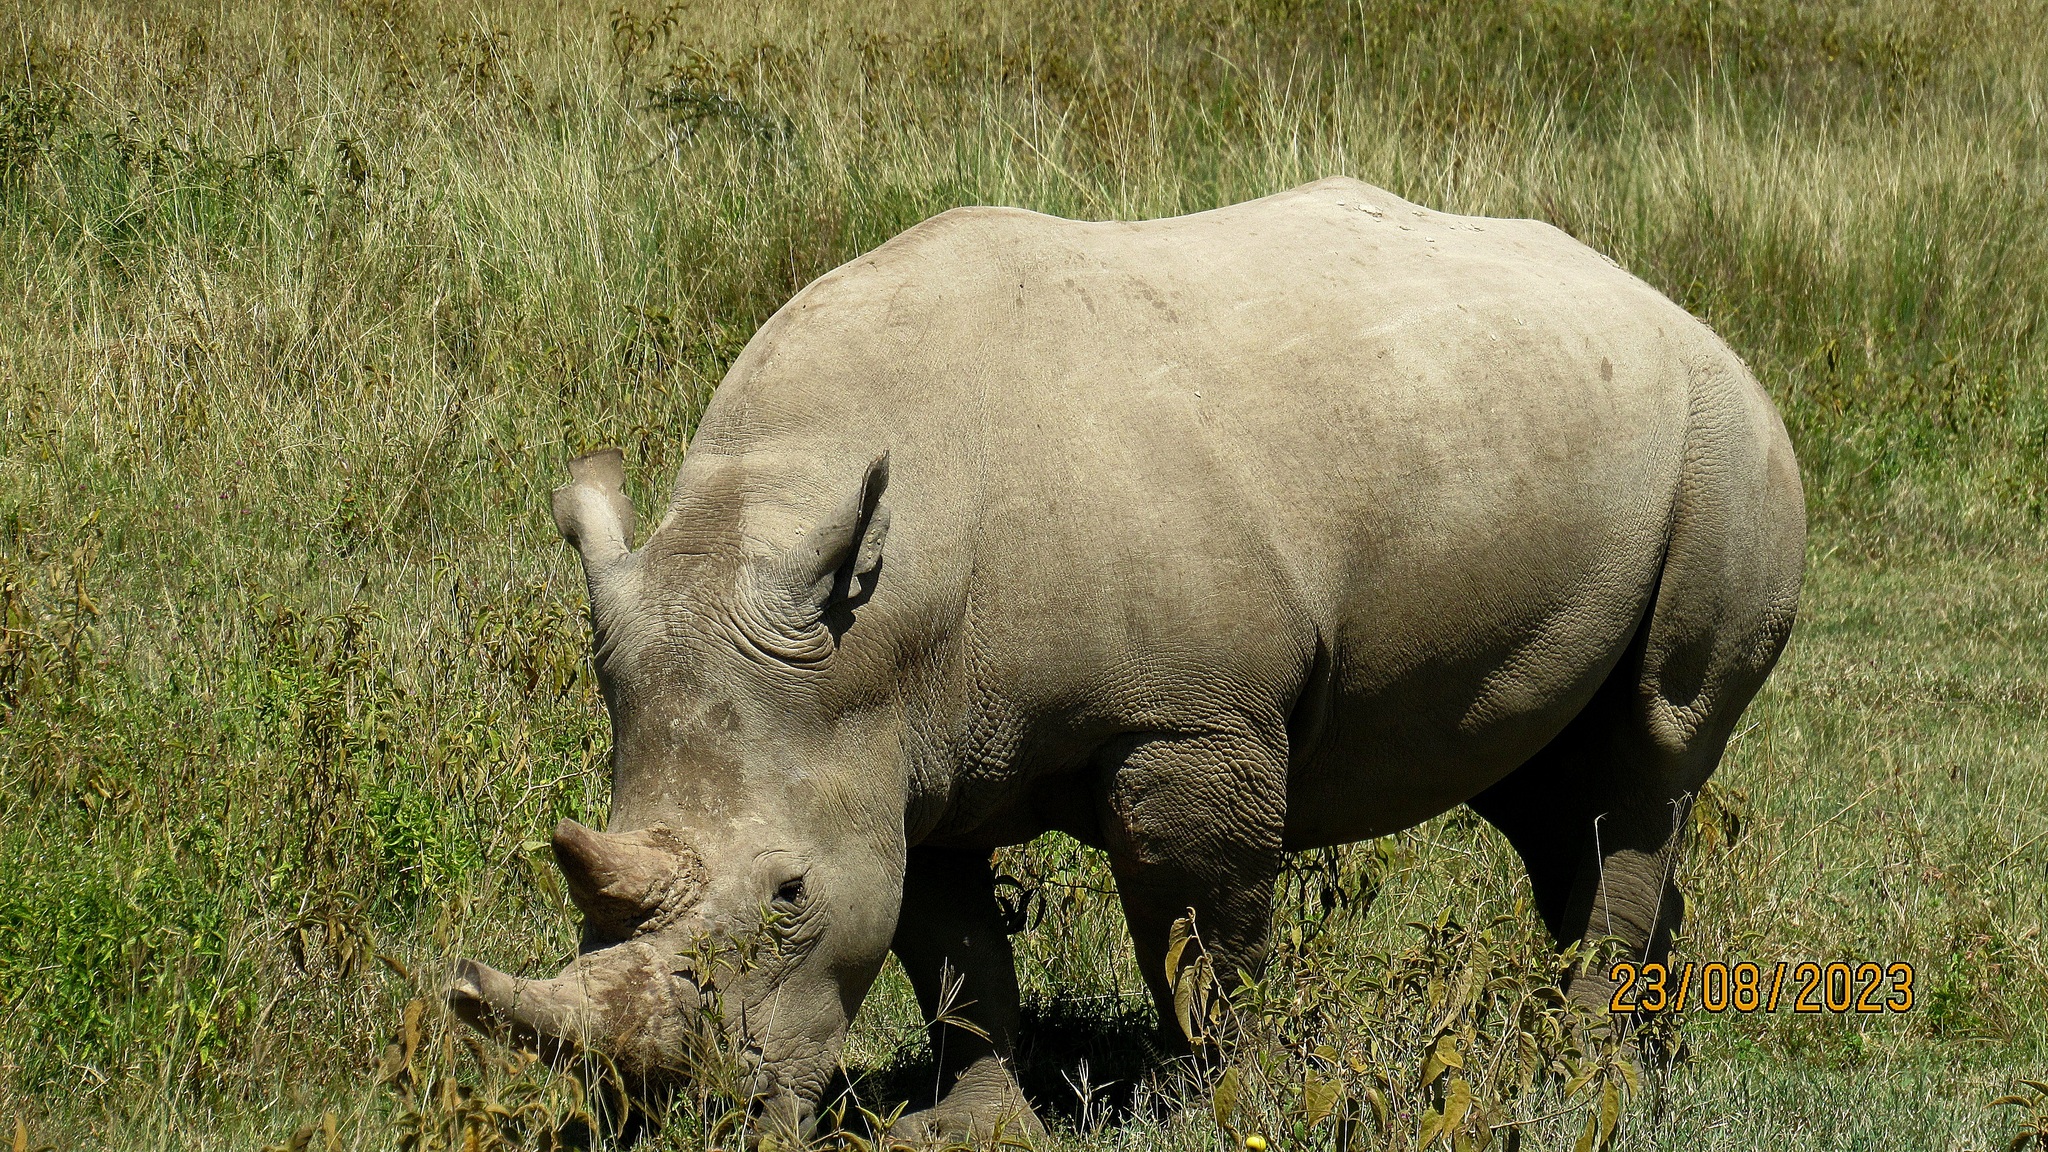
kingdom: Animalia
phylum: Chordata
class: Mammalia
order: Perissodactyla
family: Rhinocerotidae
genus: Ceratotherium
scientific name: Ceratotherium simum
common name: White rhinoceros
